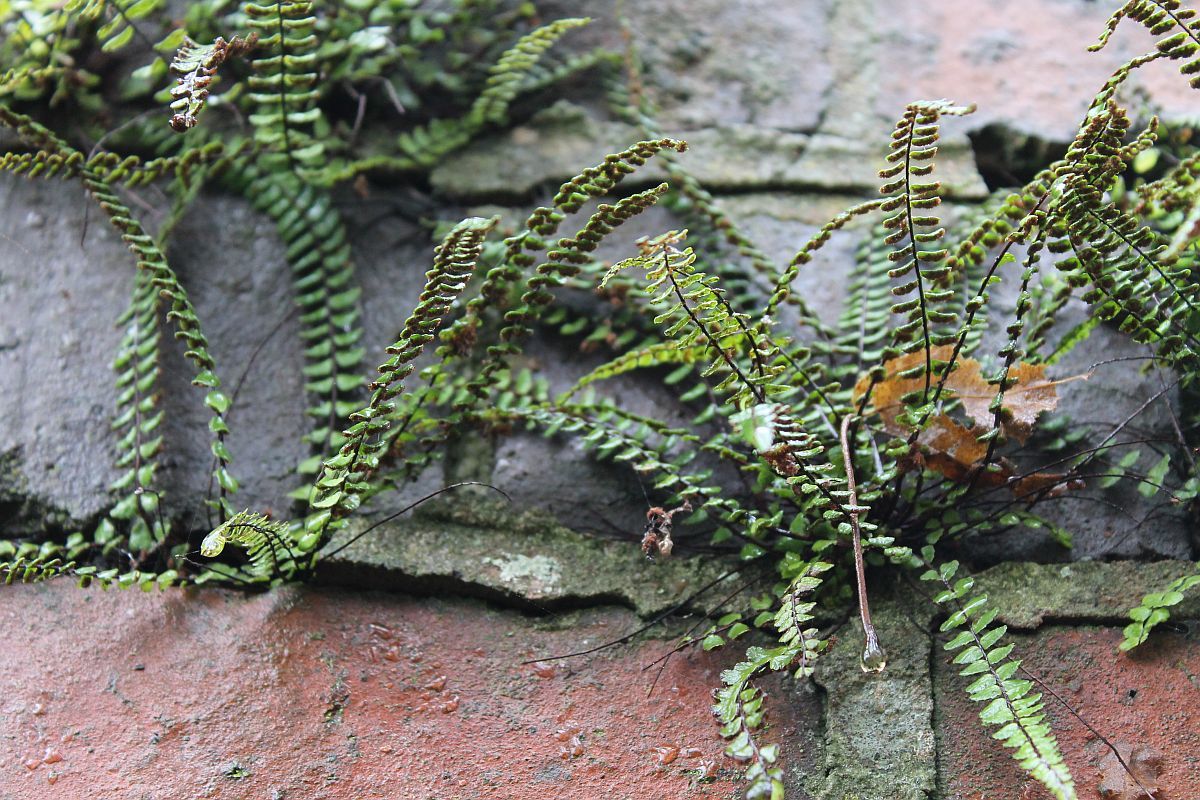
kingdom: Plantae
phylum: Tracheophyta
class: Polypodiopsida
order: Polypodiales
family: Aspleniaceae
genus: Asplenium
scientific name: Asplenium trichomanes
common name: Maidenhair spleenwort
